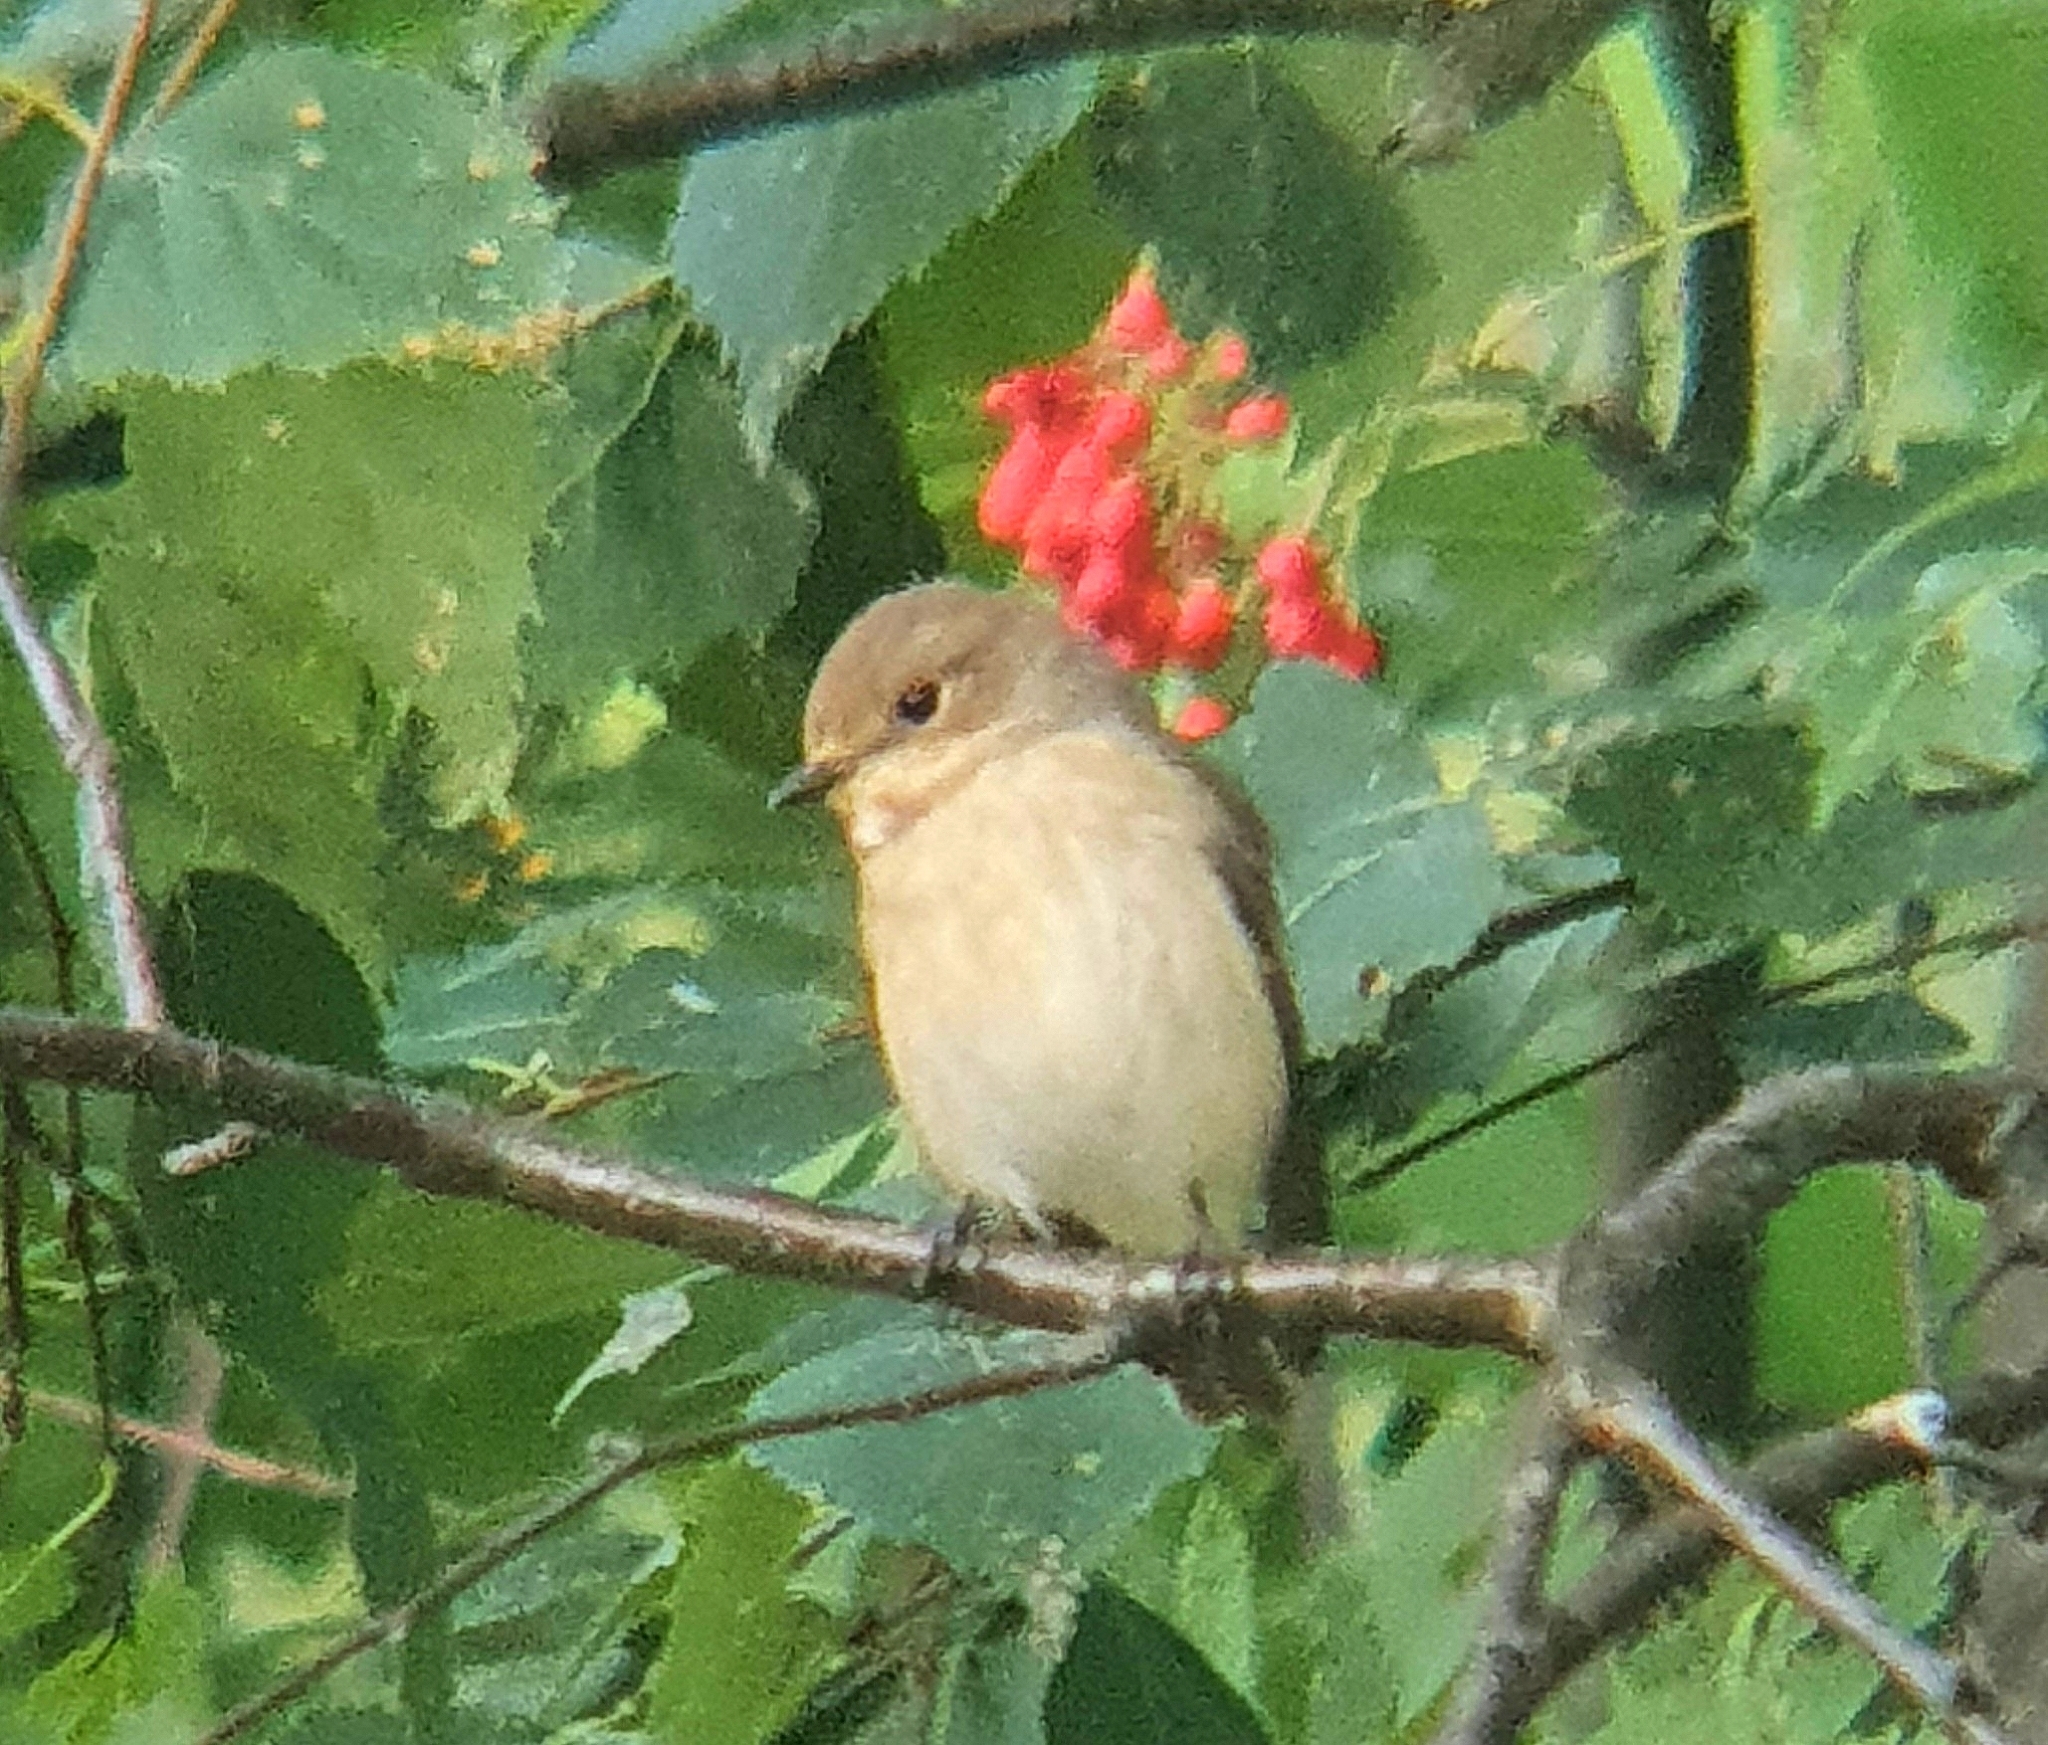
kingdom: Animalia
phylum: Chordata
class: Aves
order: Passeriformes
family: Muscicapidae
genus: Ficedula
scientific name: Ficedula hypoleuca
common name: European pied flycatcher
